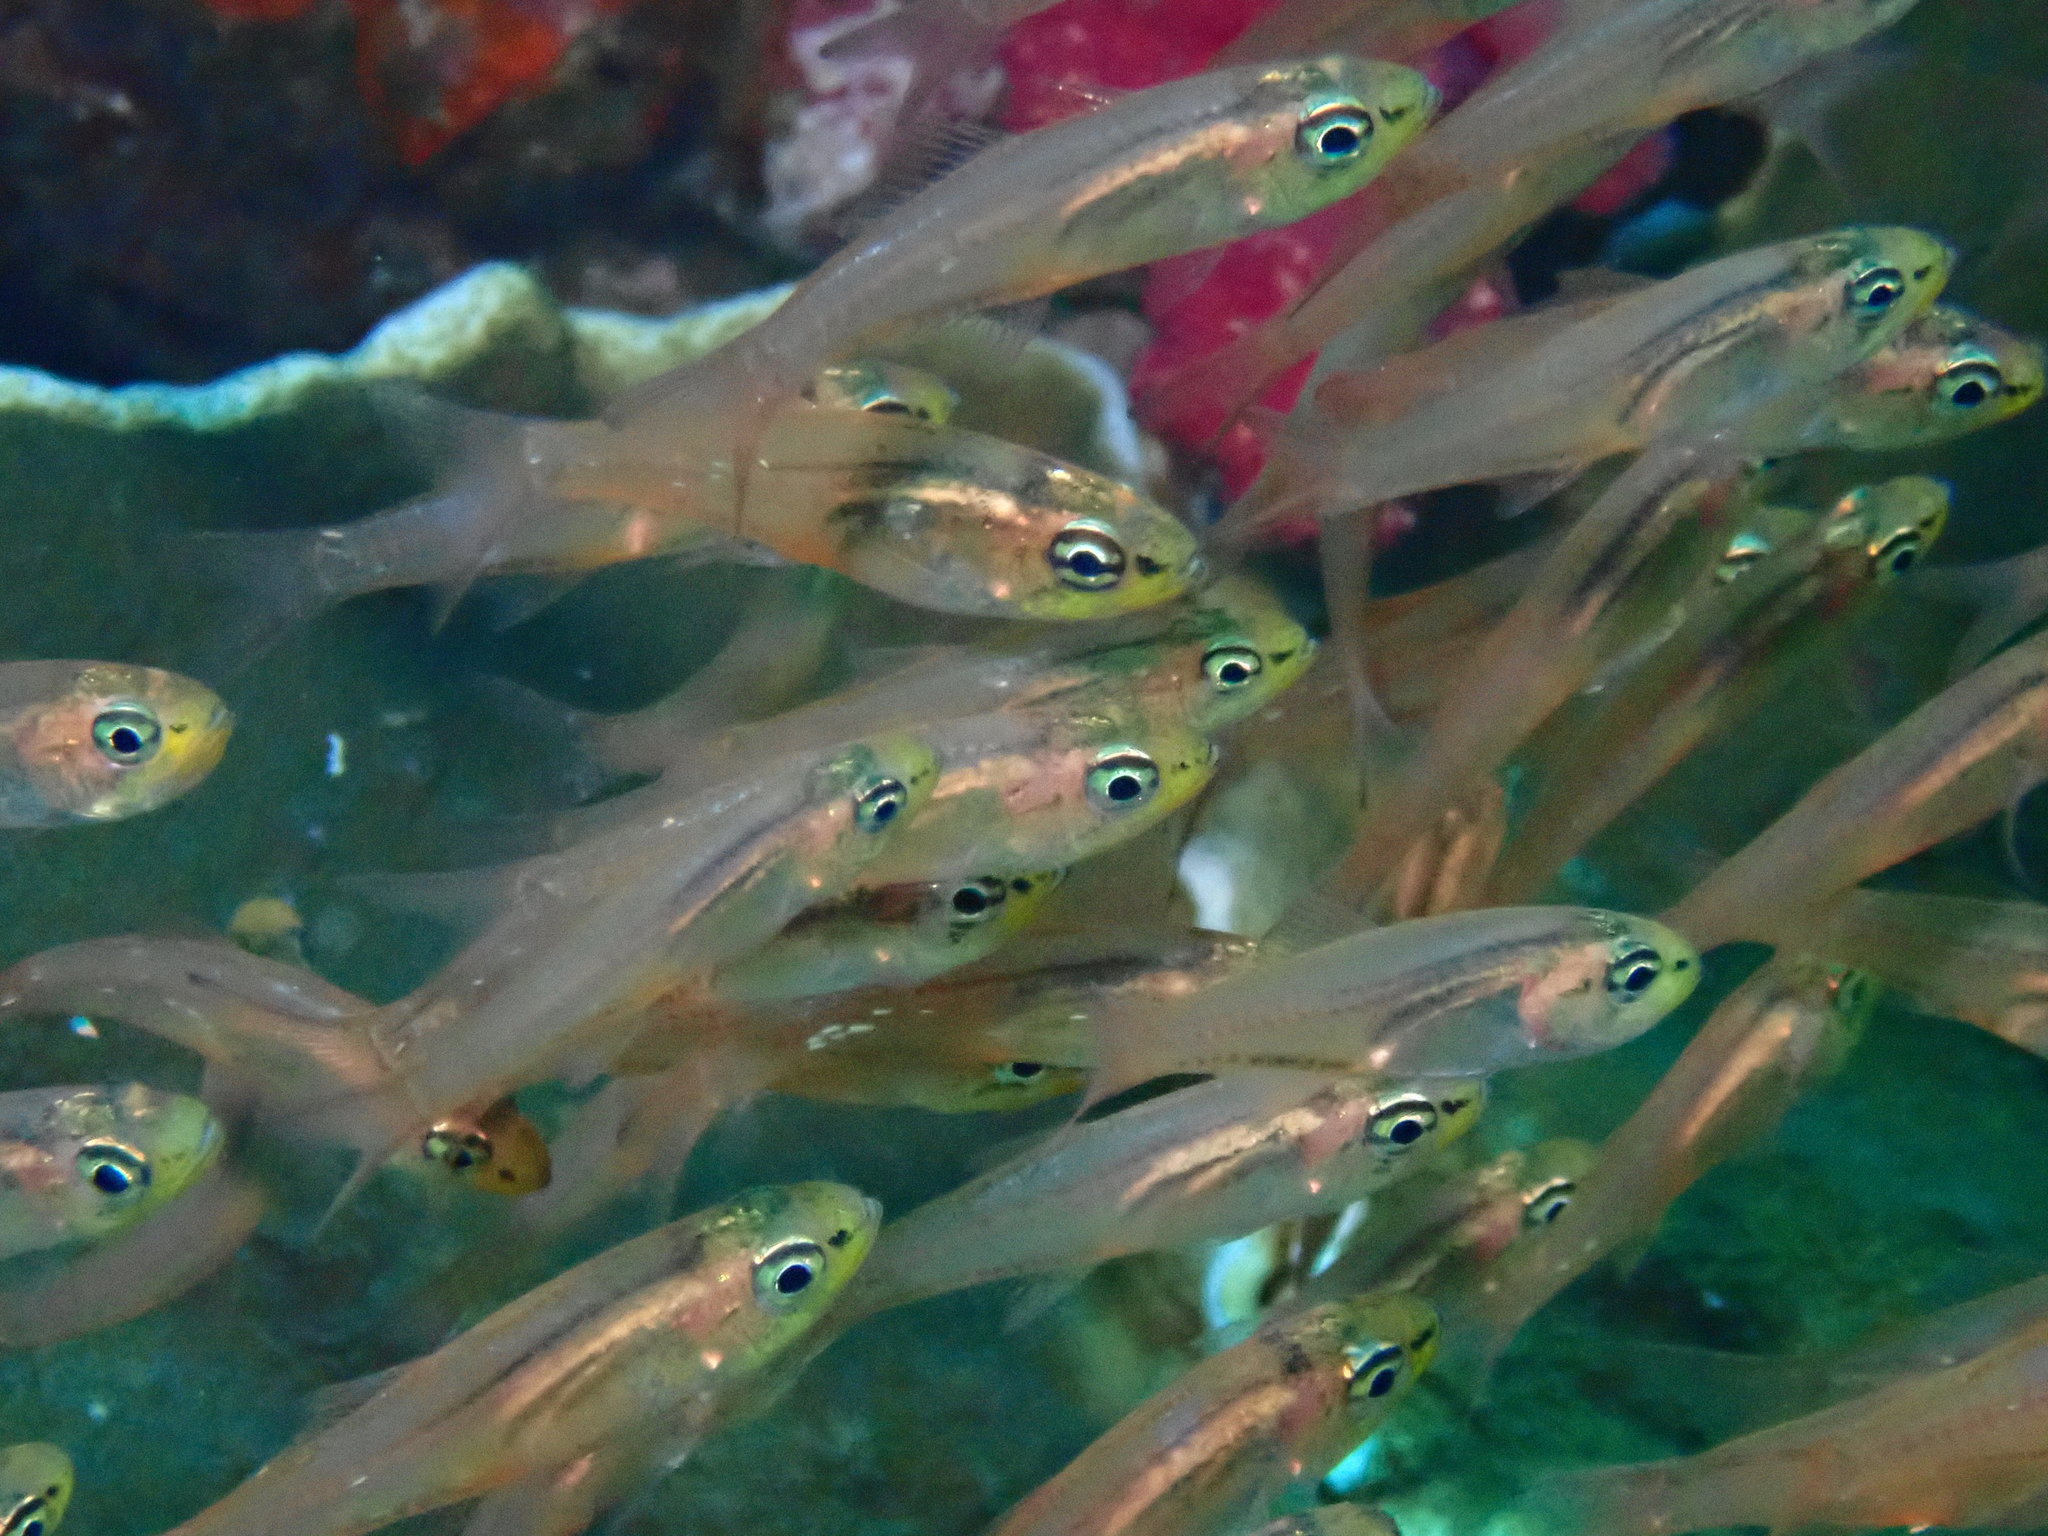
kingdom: Animalia
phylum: Chordata
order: Perciformes
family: Apogonidae
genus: Verulux
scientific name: Verulux cypselurus
